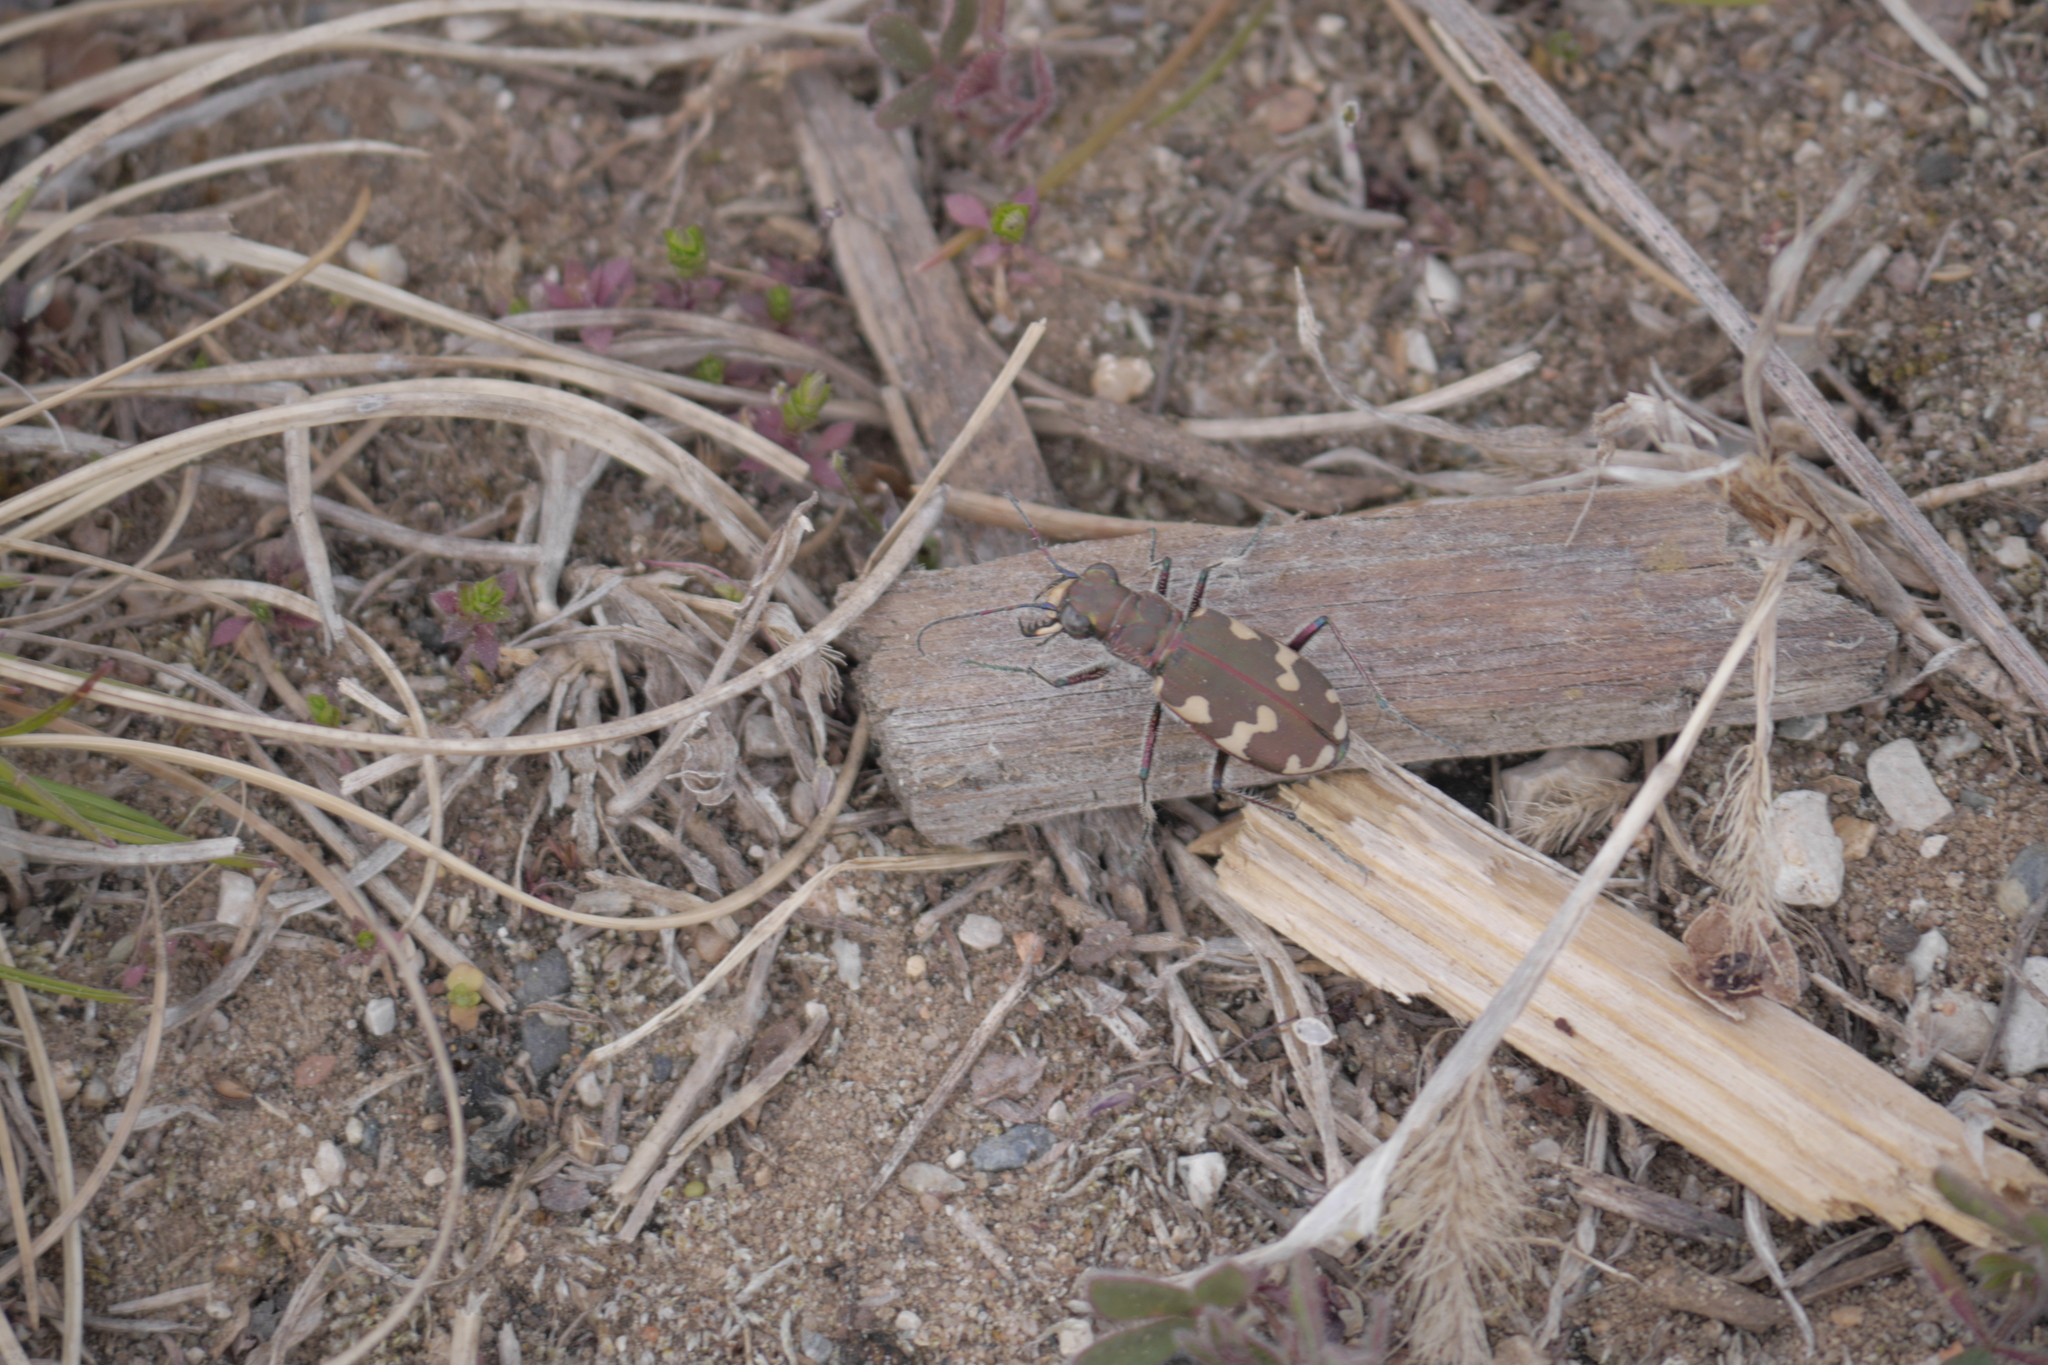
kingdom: Animalia
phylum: Arthropoda
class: Insecta
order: Coleoptera
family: Carabidae
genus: Cicindela
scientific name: Cicindela hybrida
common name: Northern dune tiger beetle
